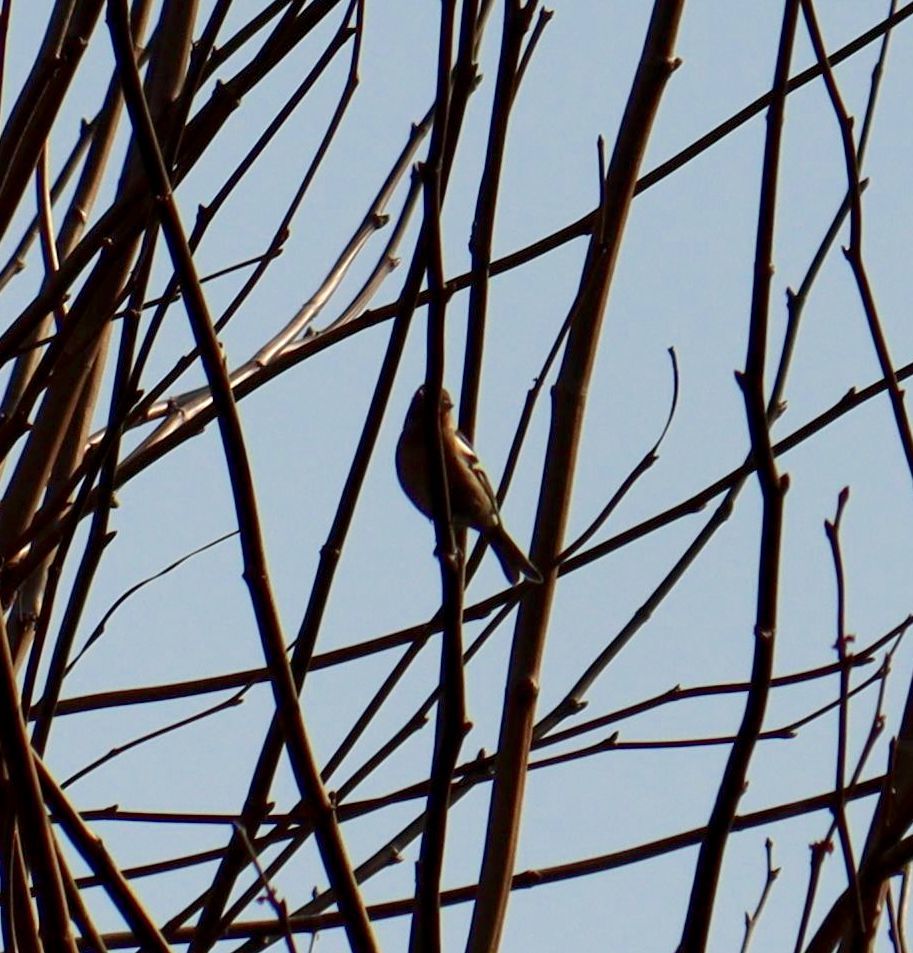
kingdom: Animalia
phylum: Chordata
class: Aves
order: Passeriformes
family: Fringillidae
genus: Fringilla
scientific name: Fringilla coelebs
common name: Common chaffinch
